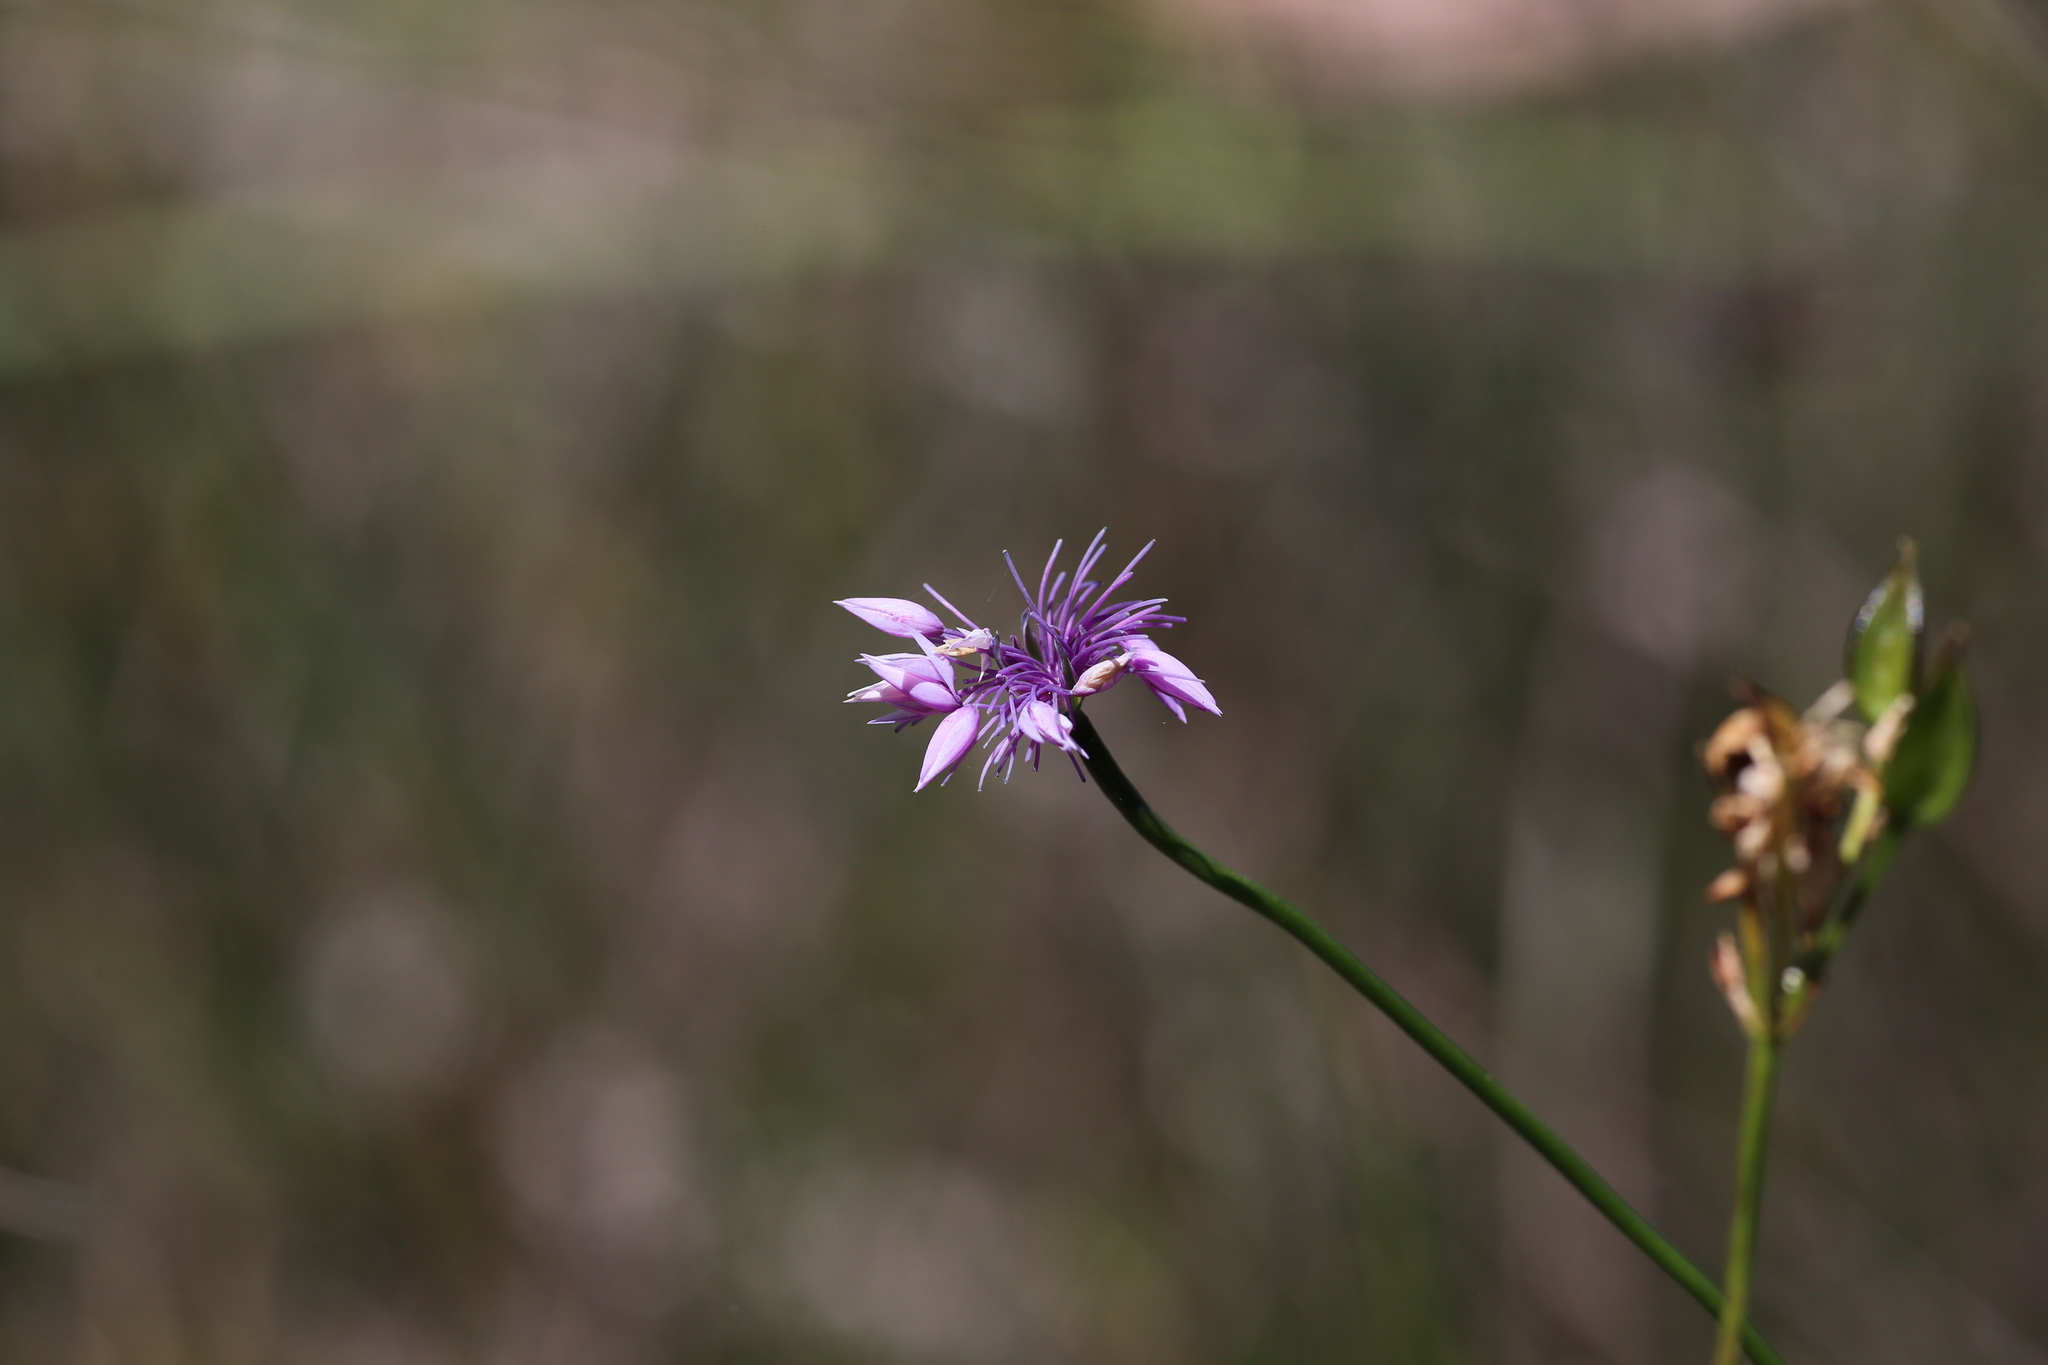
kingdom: Plantae
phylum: Tracheophyta
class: Liliopsida
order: Asparagales
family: Asparagaceae
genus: Sowerbaea
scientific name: Sowerbaea laxiflora
